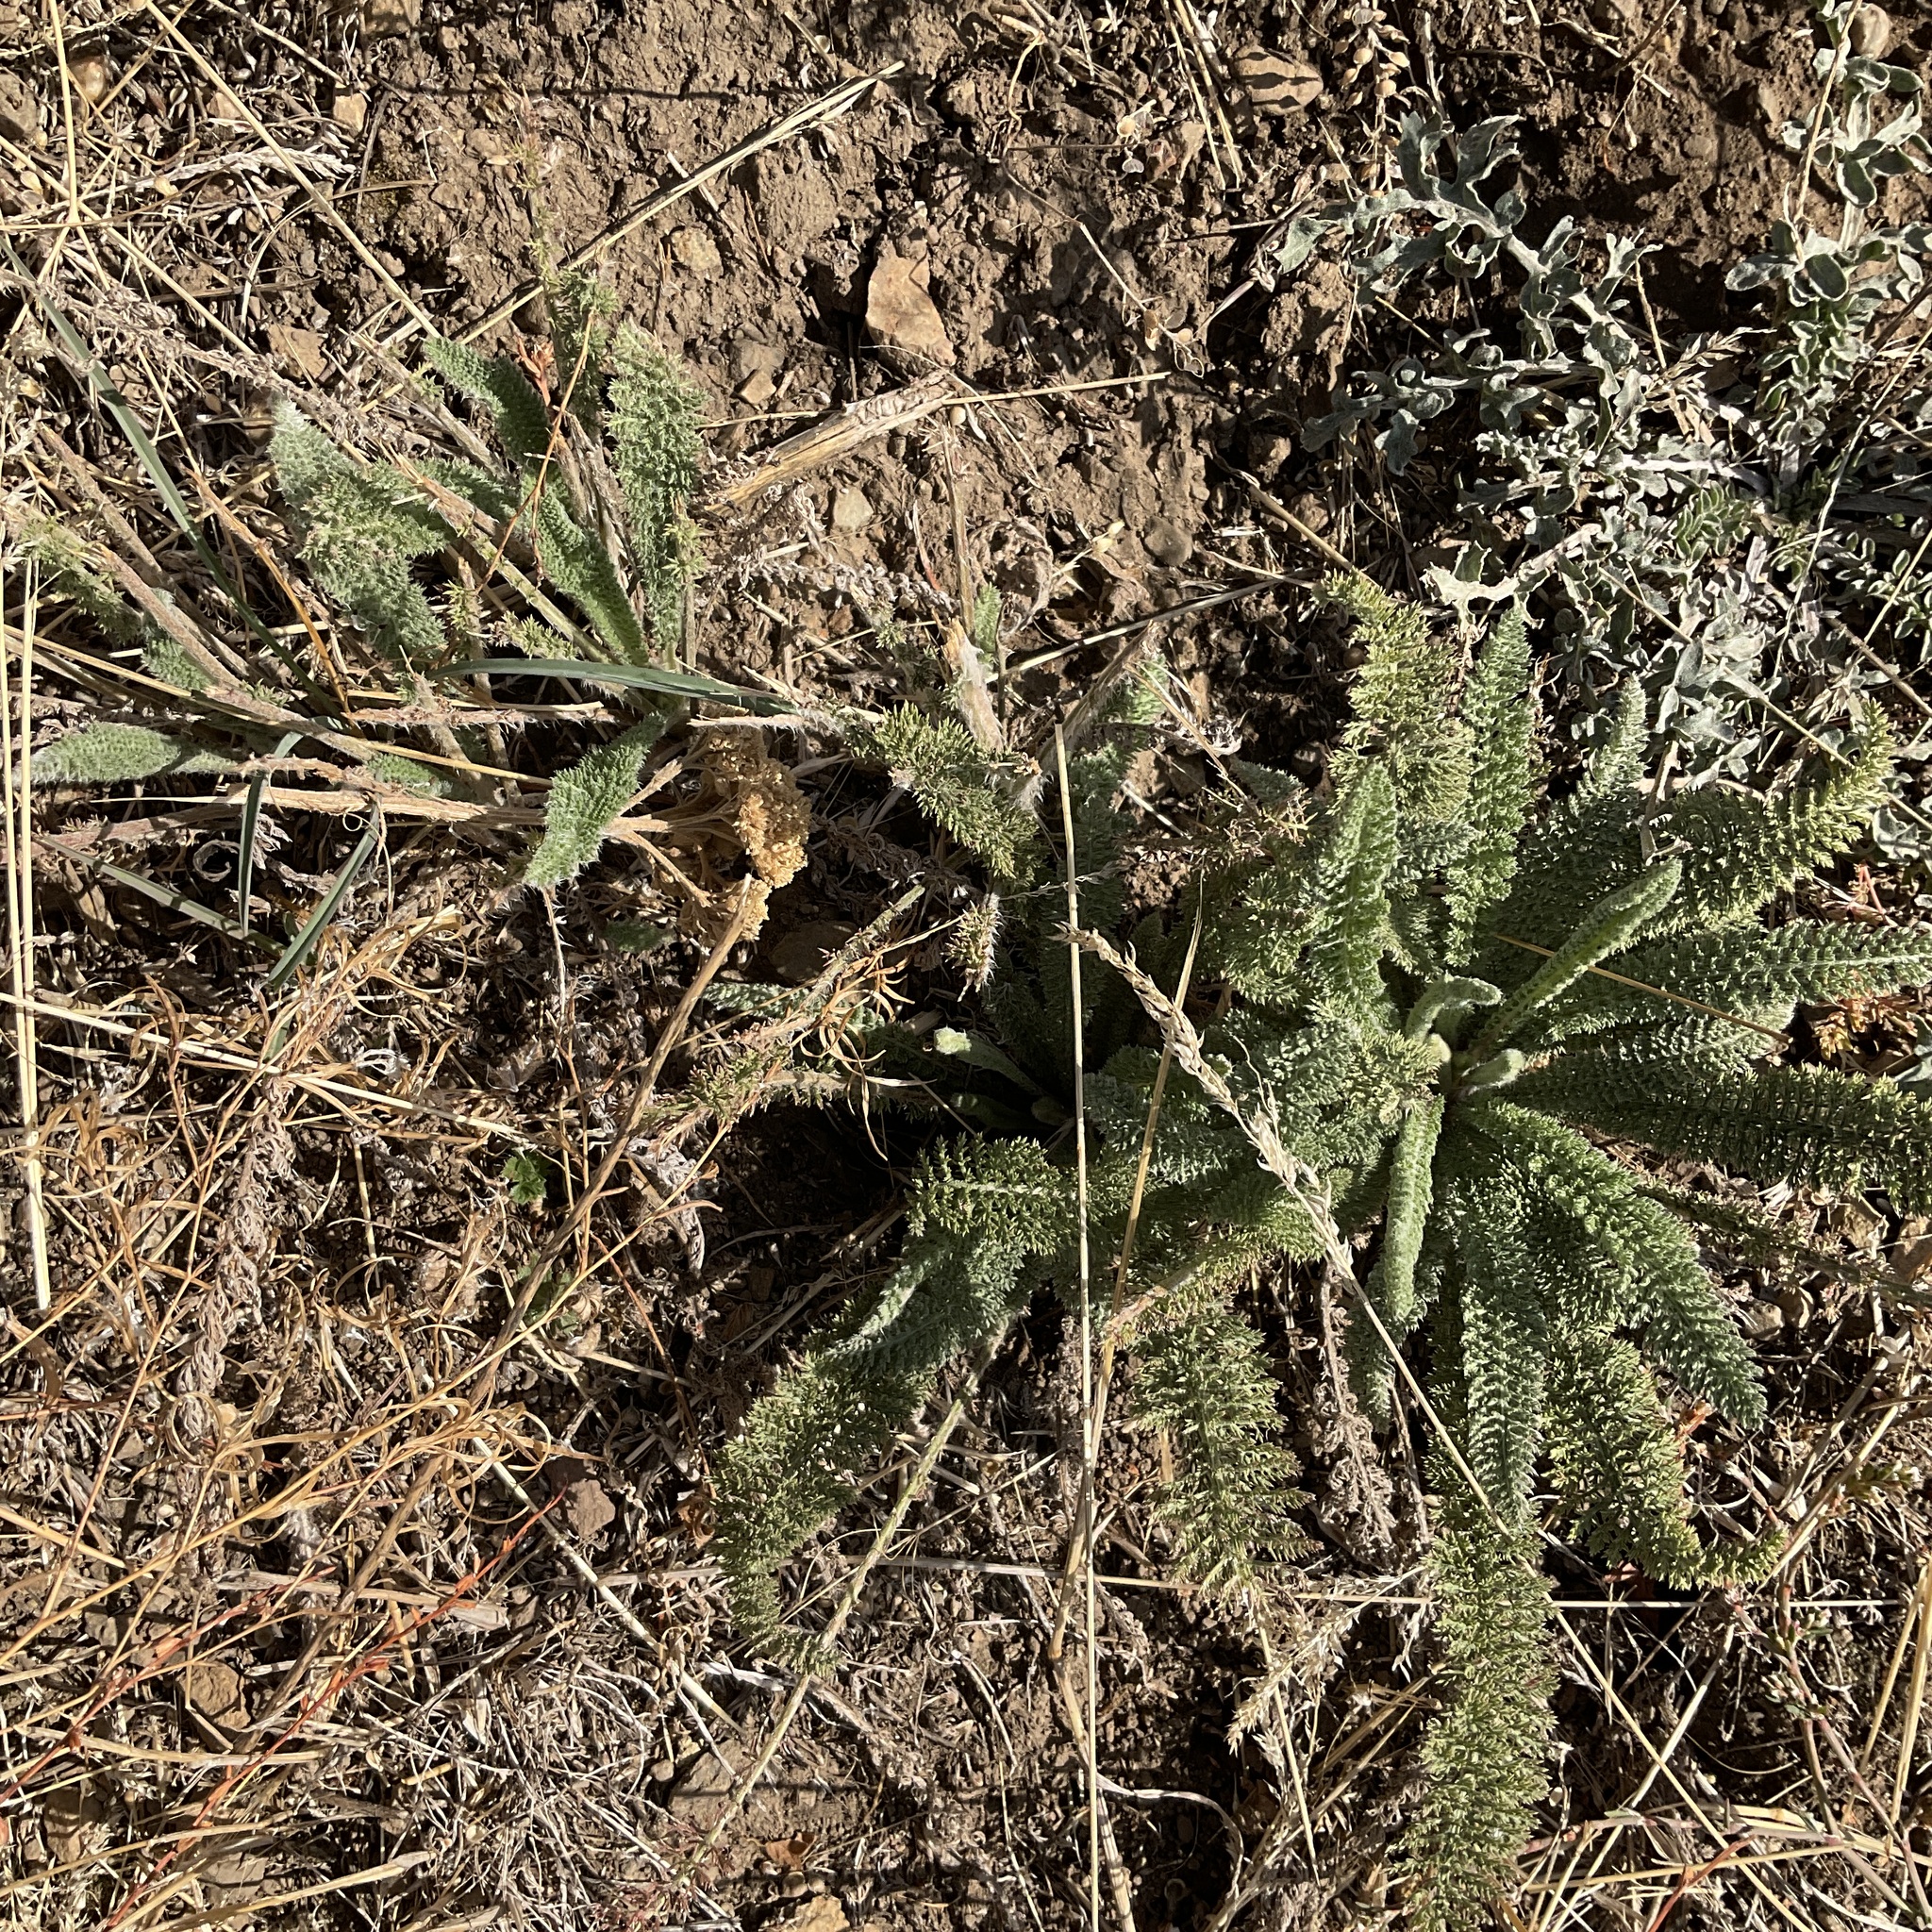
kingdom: Plantae
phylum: Tracheophyta
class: Magnoliopsida
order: Asterales
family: Asteraceae
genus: Achillea
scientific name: Achillea millefolium
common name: Yarrow
